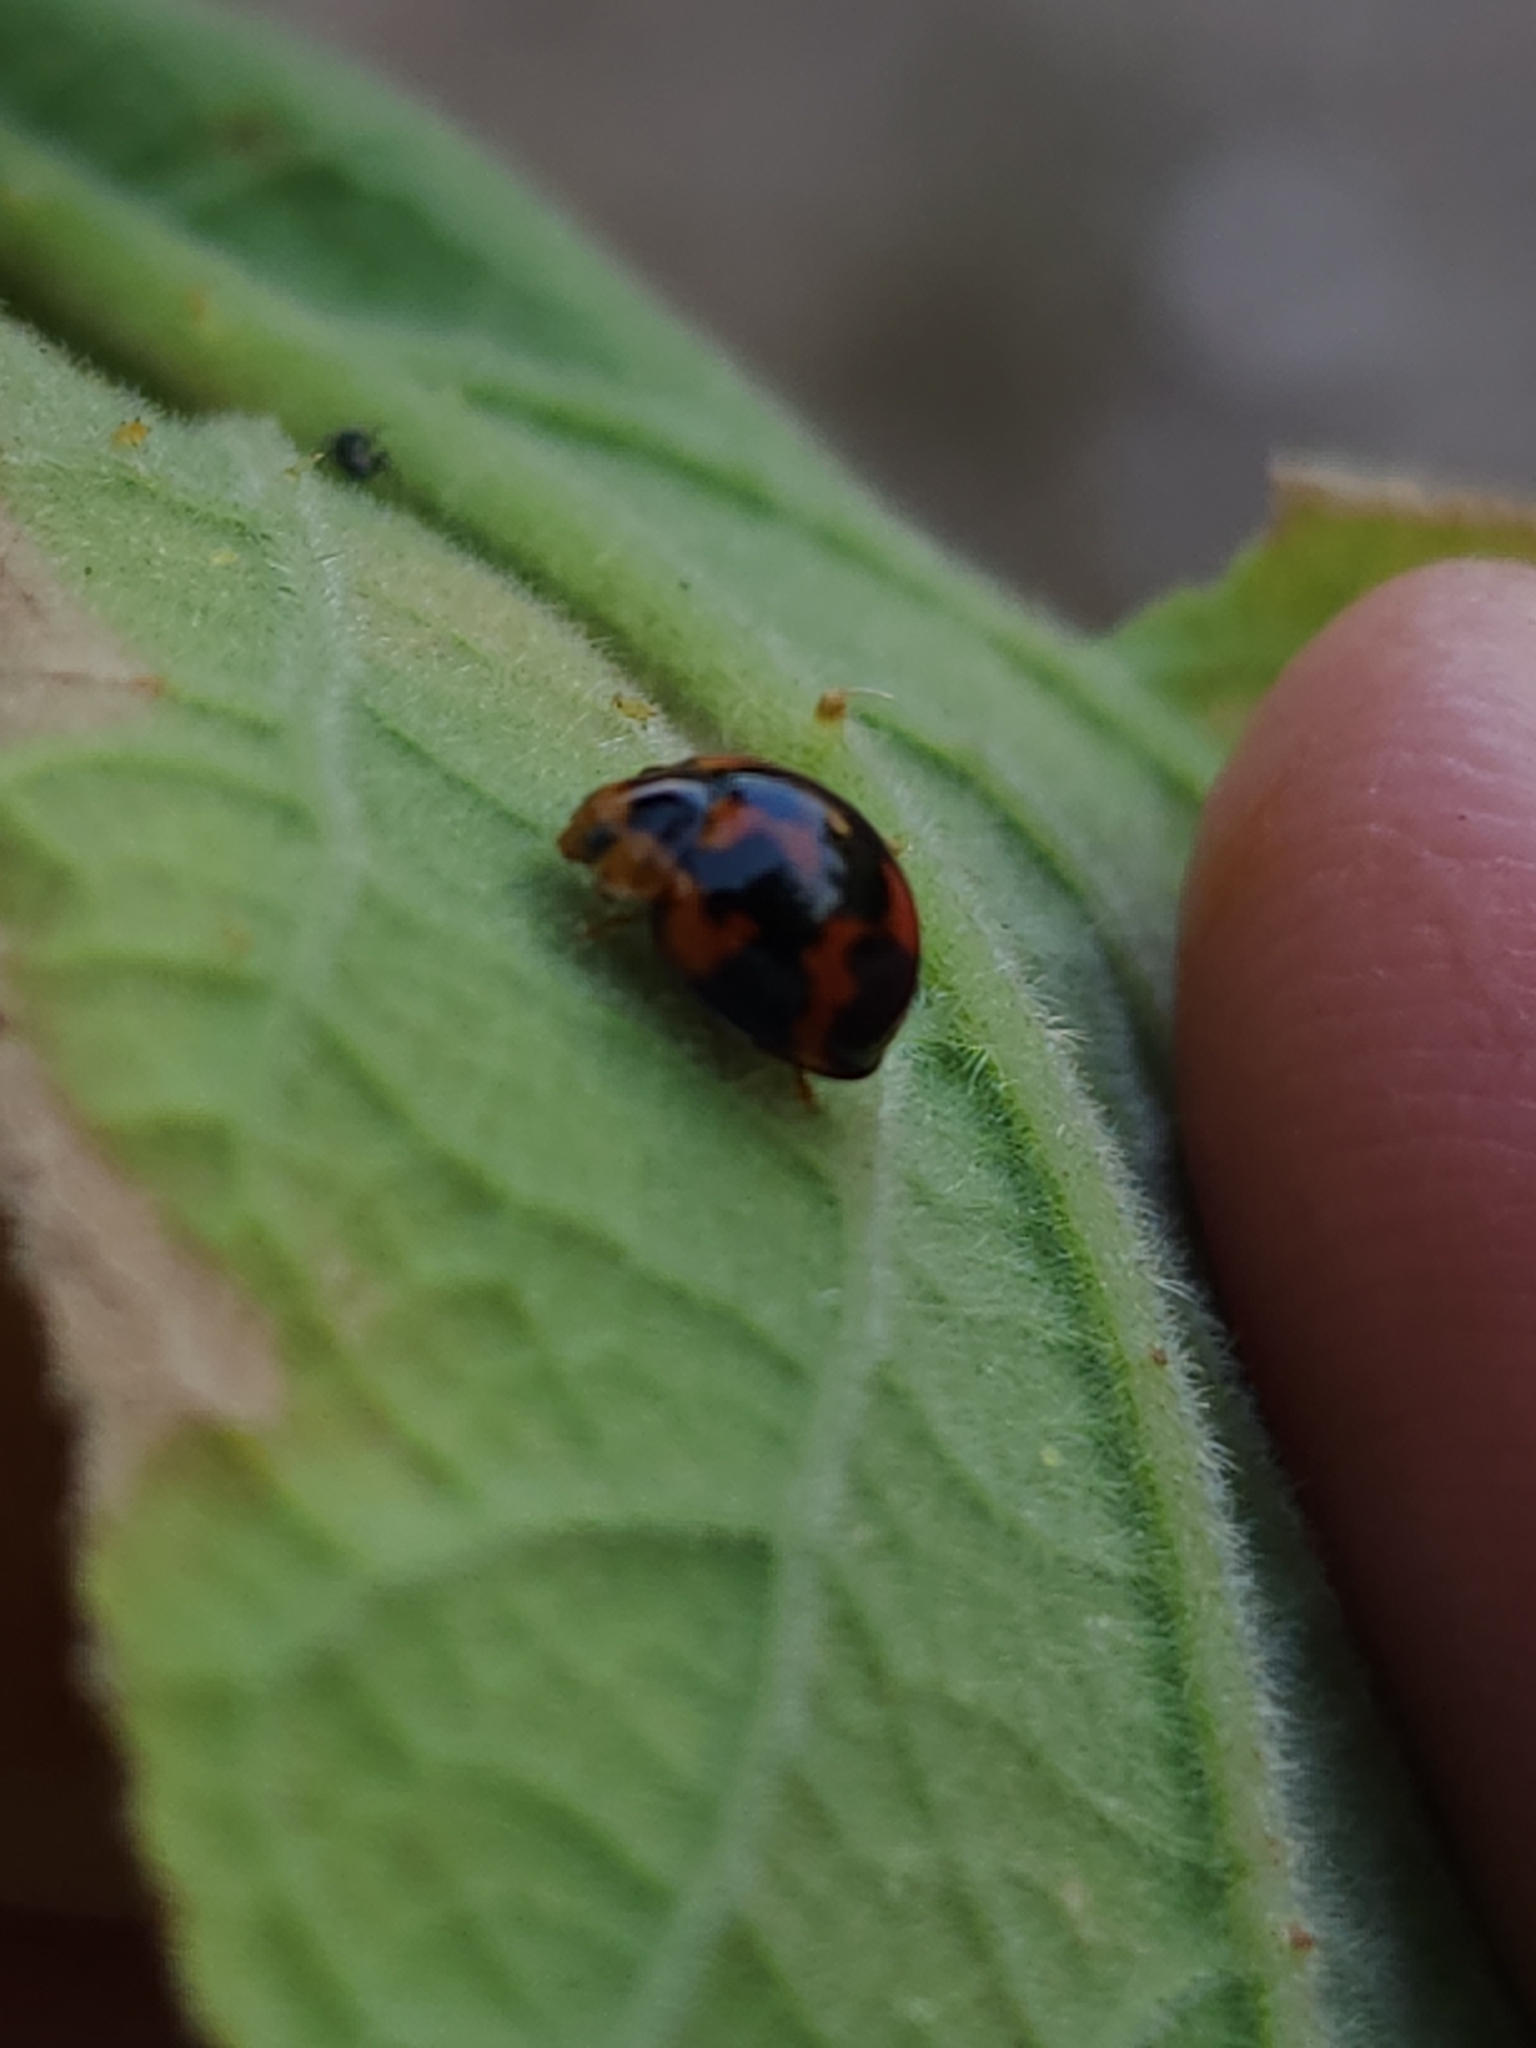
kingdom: Animalia
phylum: Arthropoda
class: Insecta
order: Coleoptera
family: Coccinellidae
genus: Coelophora
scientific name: Coelophora inaequalis
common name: Common australian lady beetle
